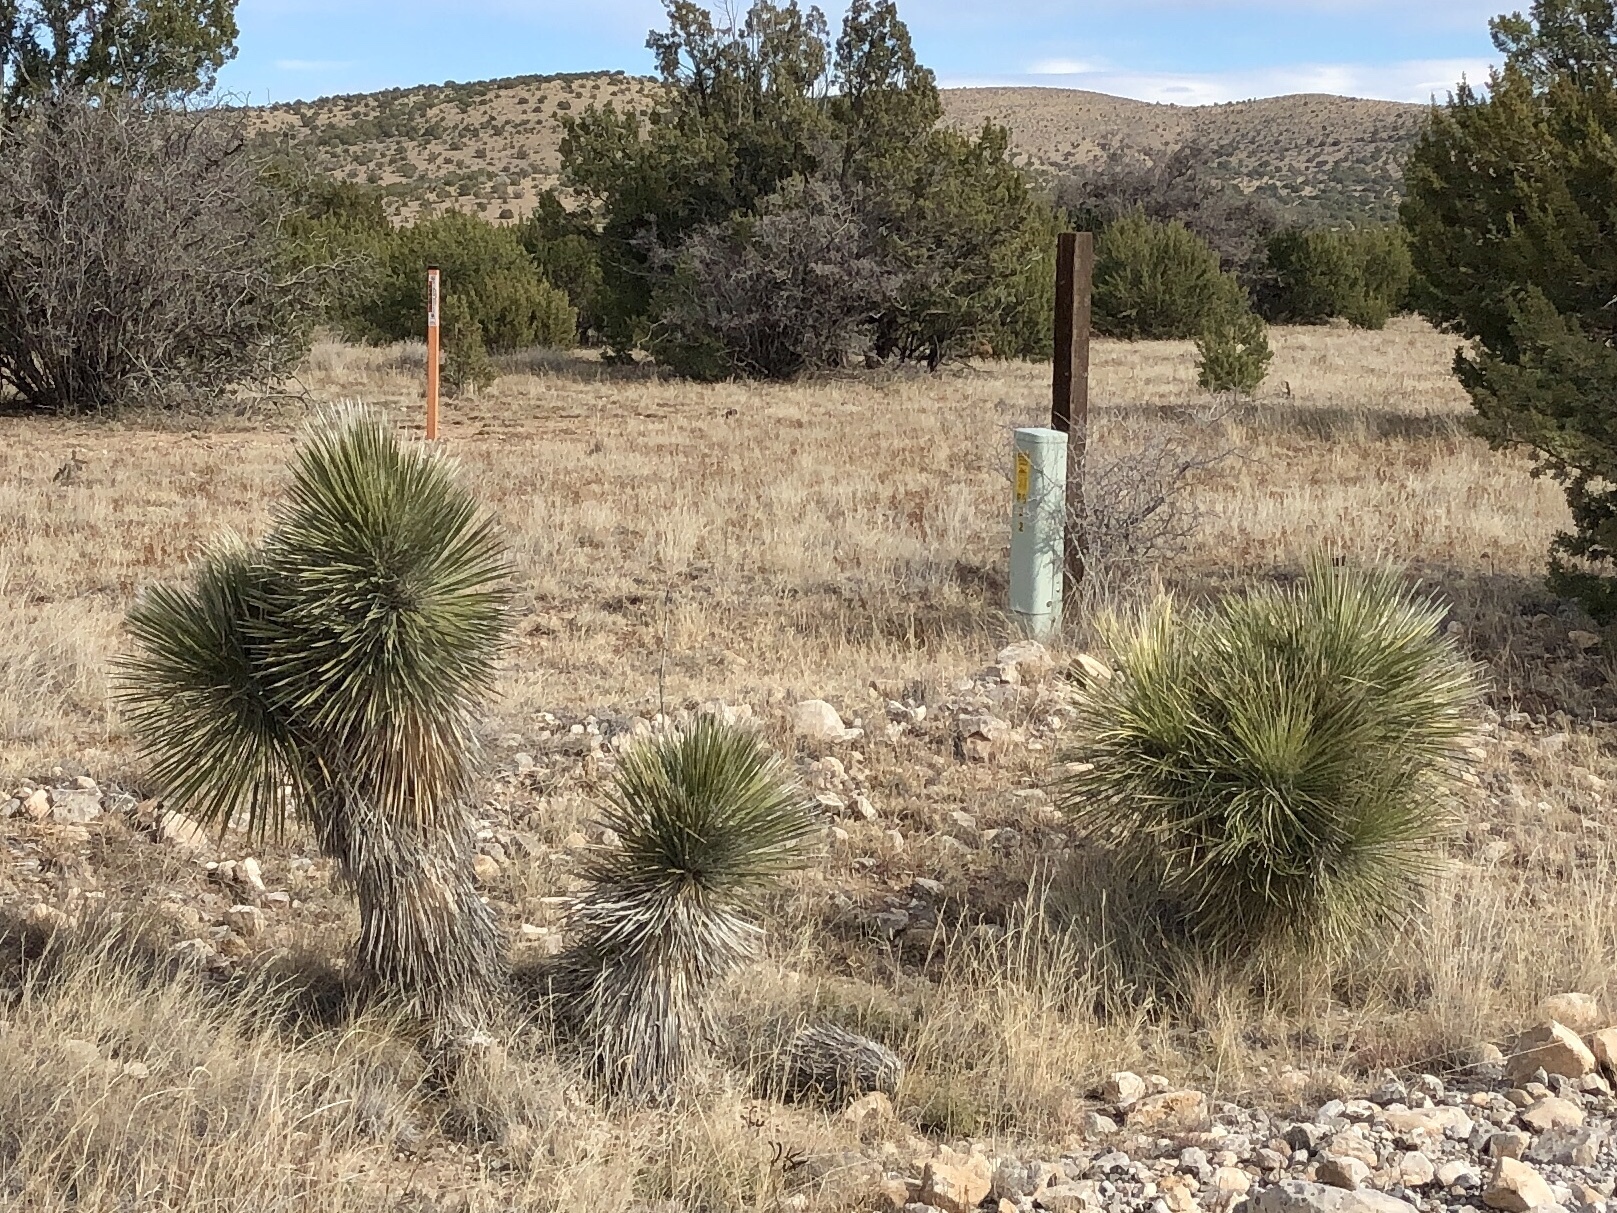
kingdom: Plantae
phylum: Tracheophyta
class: Liliopsida
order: Asparagales
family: Asparagaceae
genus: Yucca
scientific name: Yucca elata
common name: Palmella
